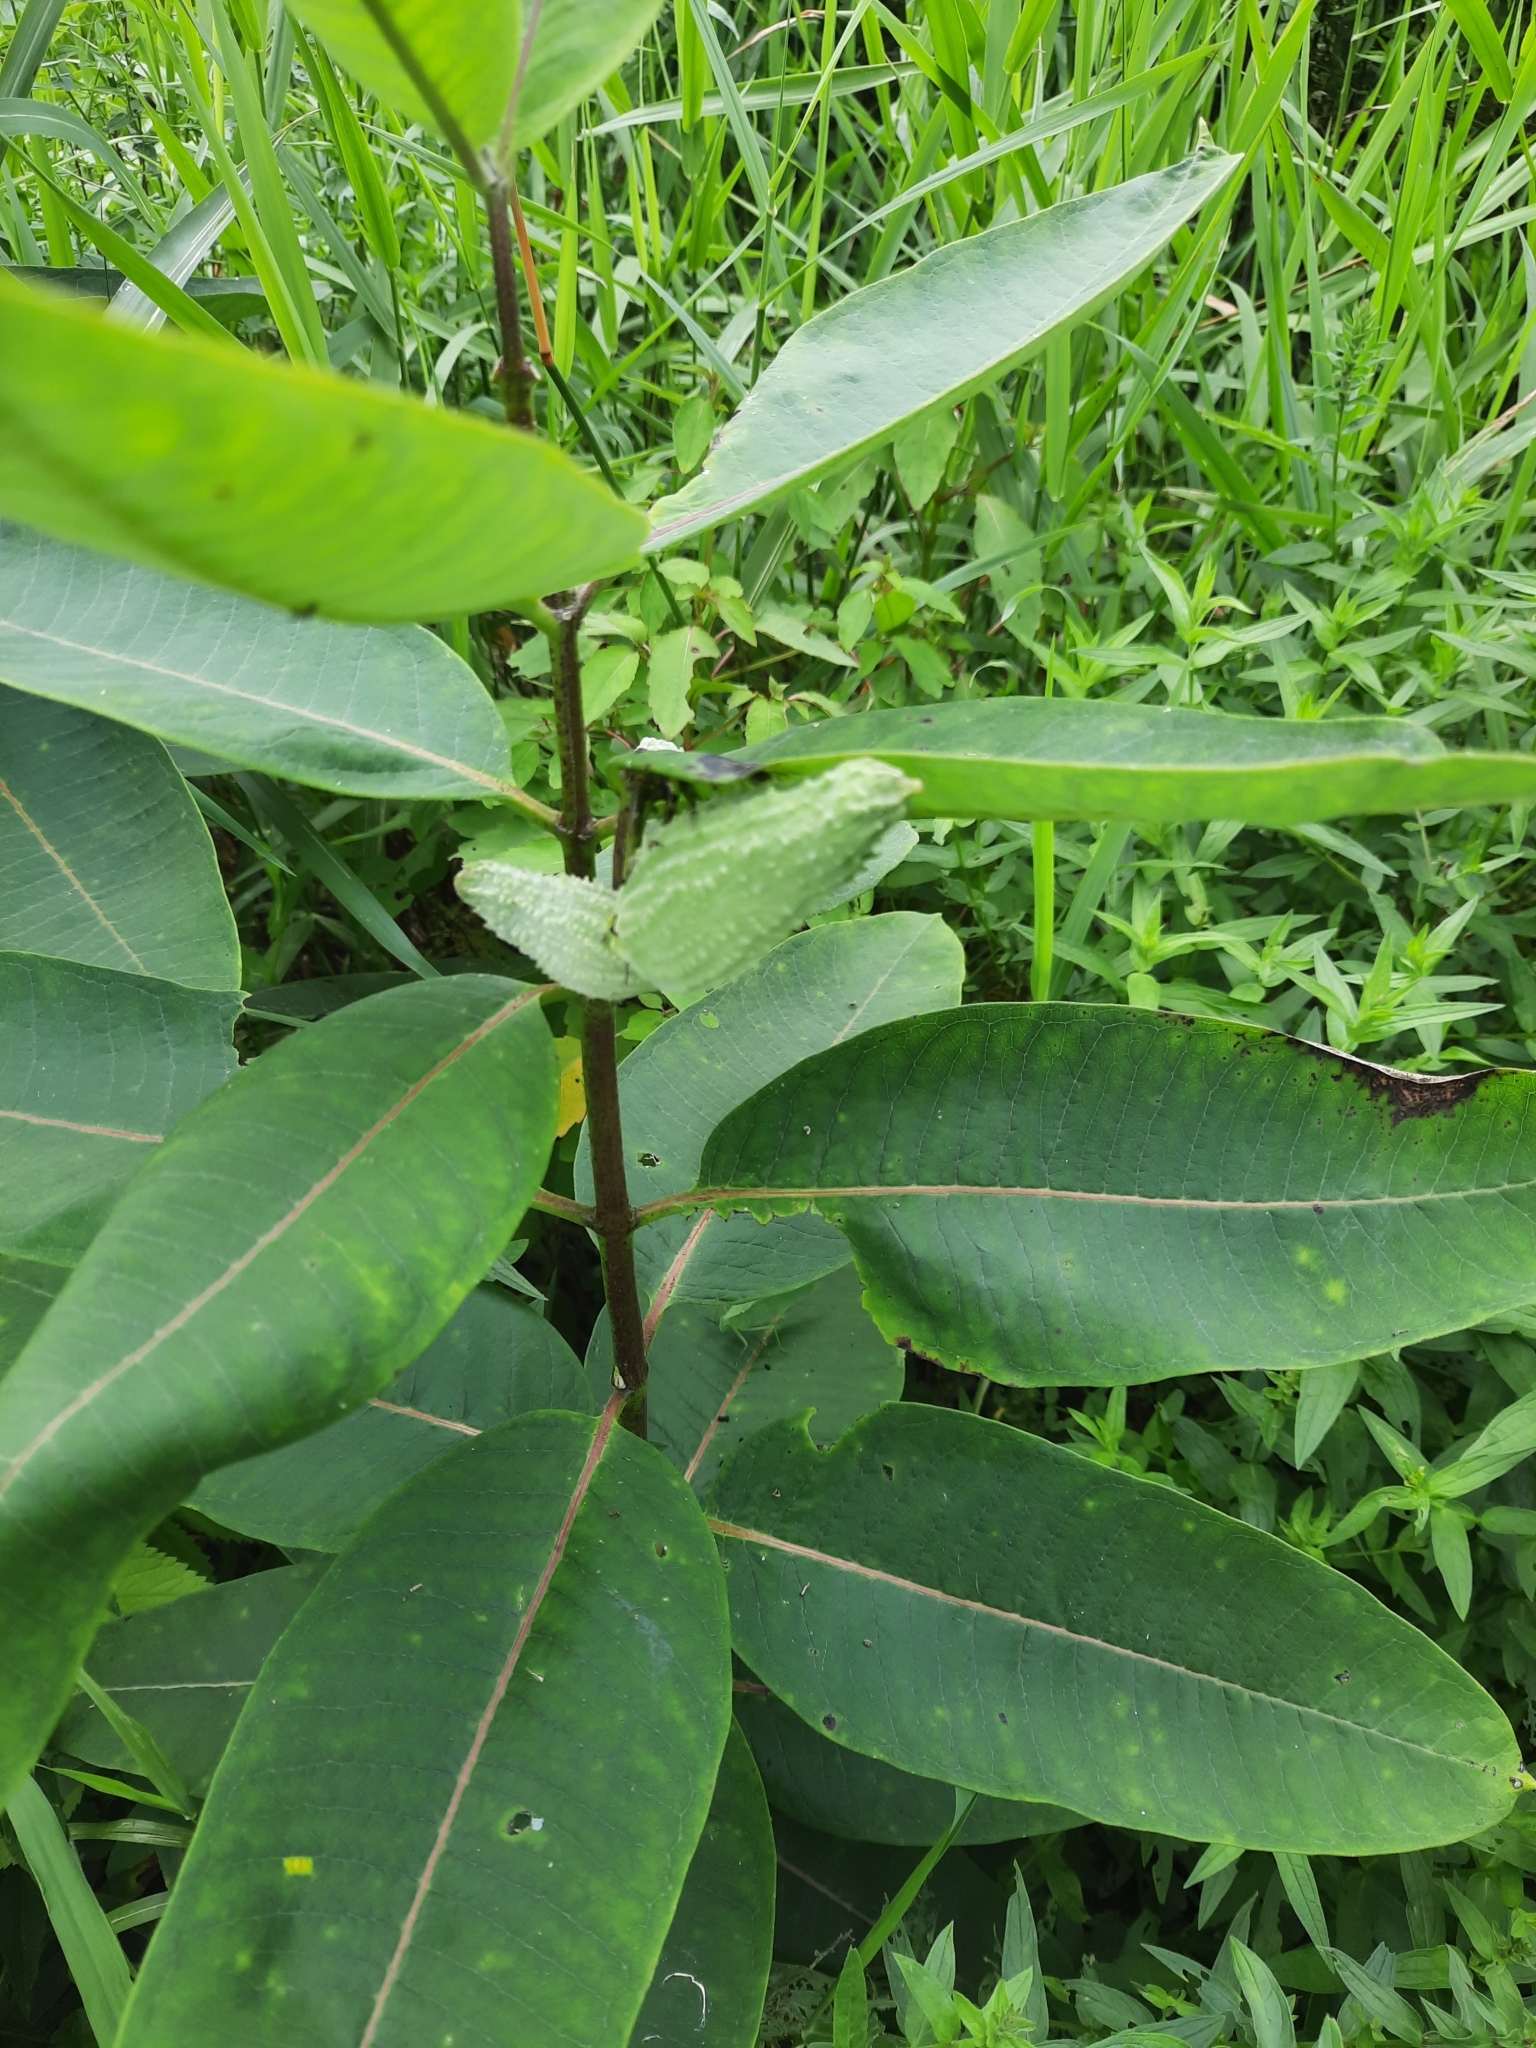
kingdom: Plantae
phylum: Tracheophyta
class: Magnoliopsida
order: Gentianales
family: Apocynaceae
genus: Asclepias
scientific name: Asclepias syriaca
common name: Common milkweed
